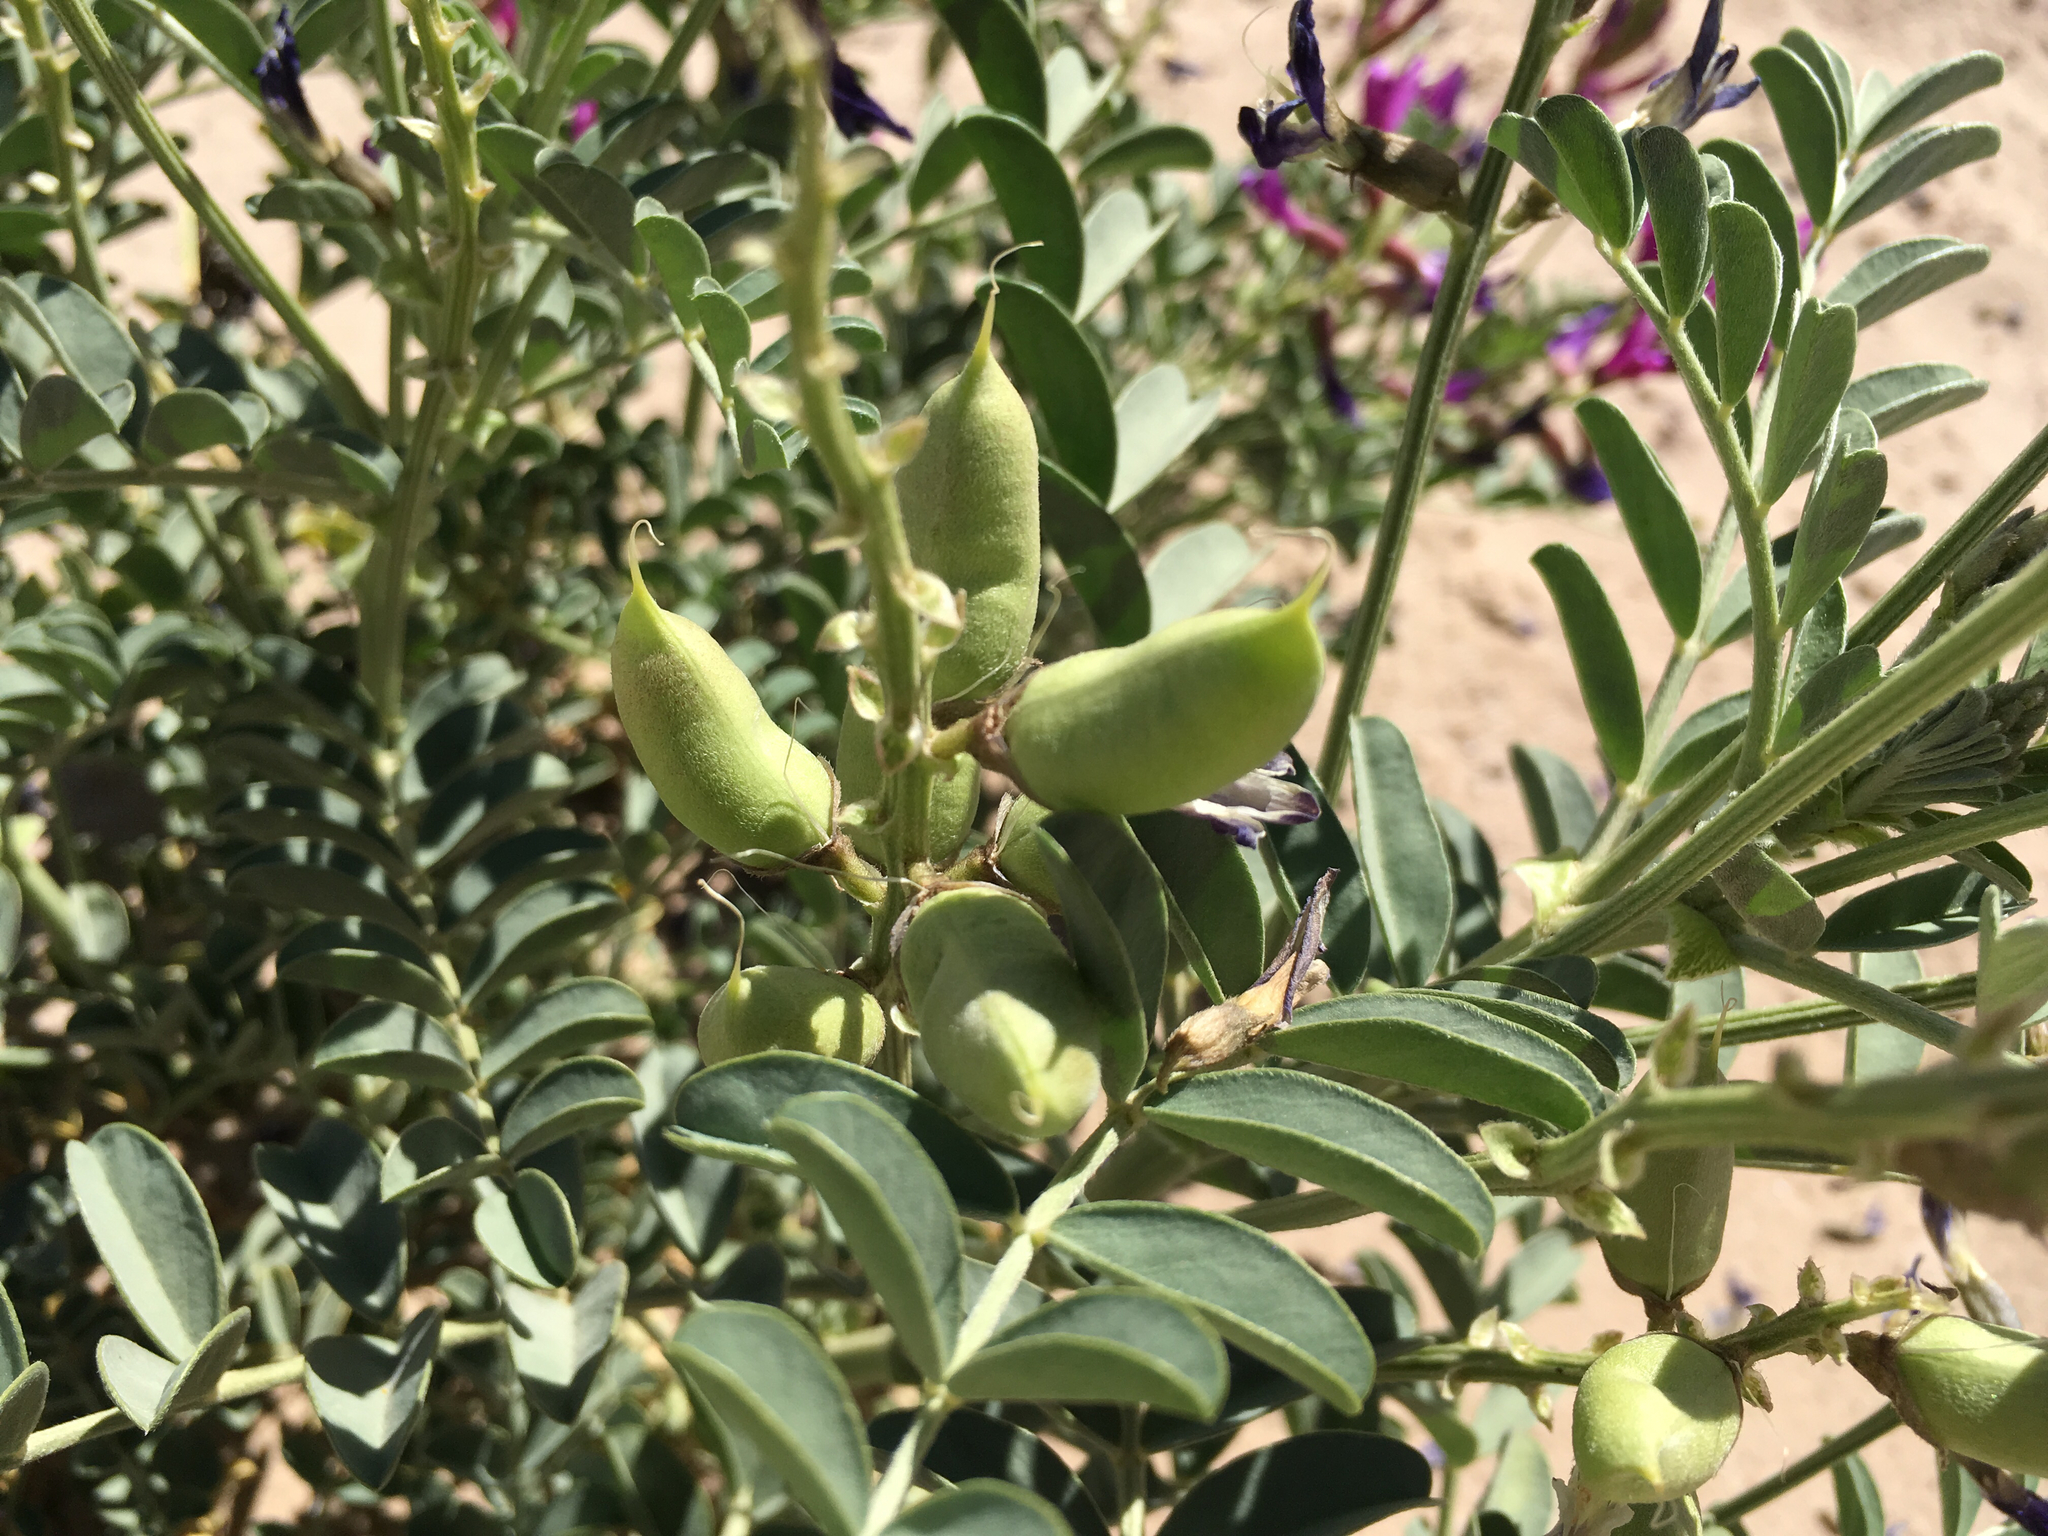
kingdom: Plantae
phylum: Tracheophyta
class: Magnoliopsida
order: Fabales
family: Fabaceae
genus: Astragalus
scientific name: Astragalus crotalariae
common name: Salton milkvetch
